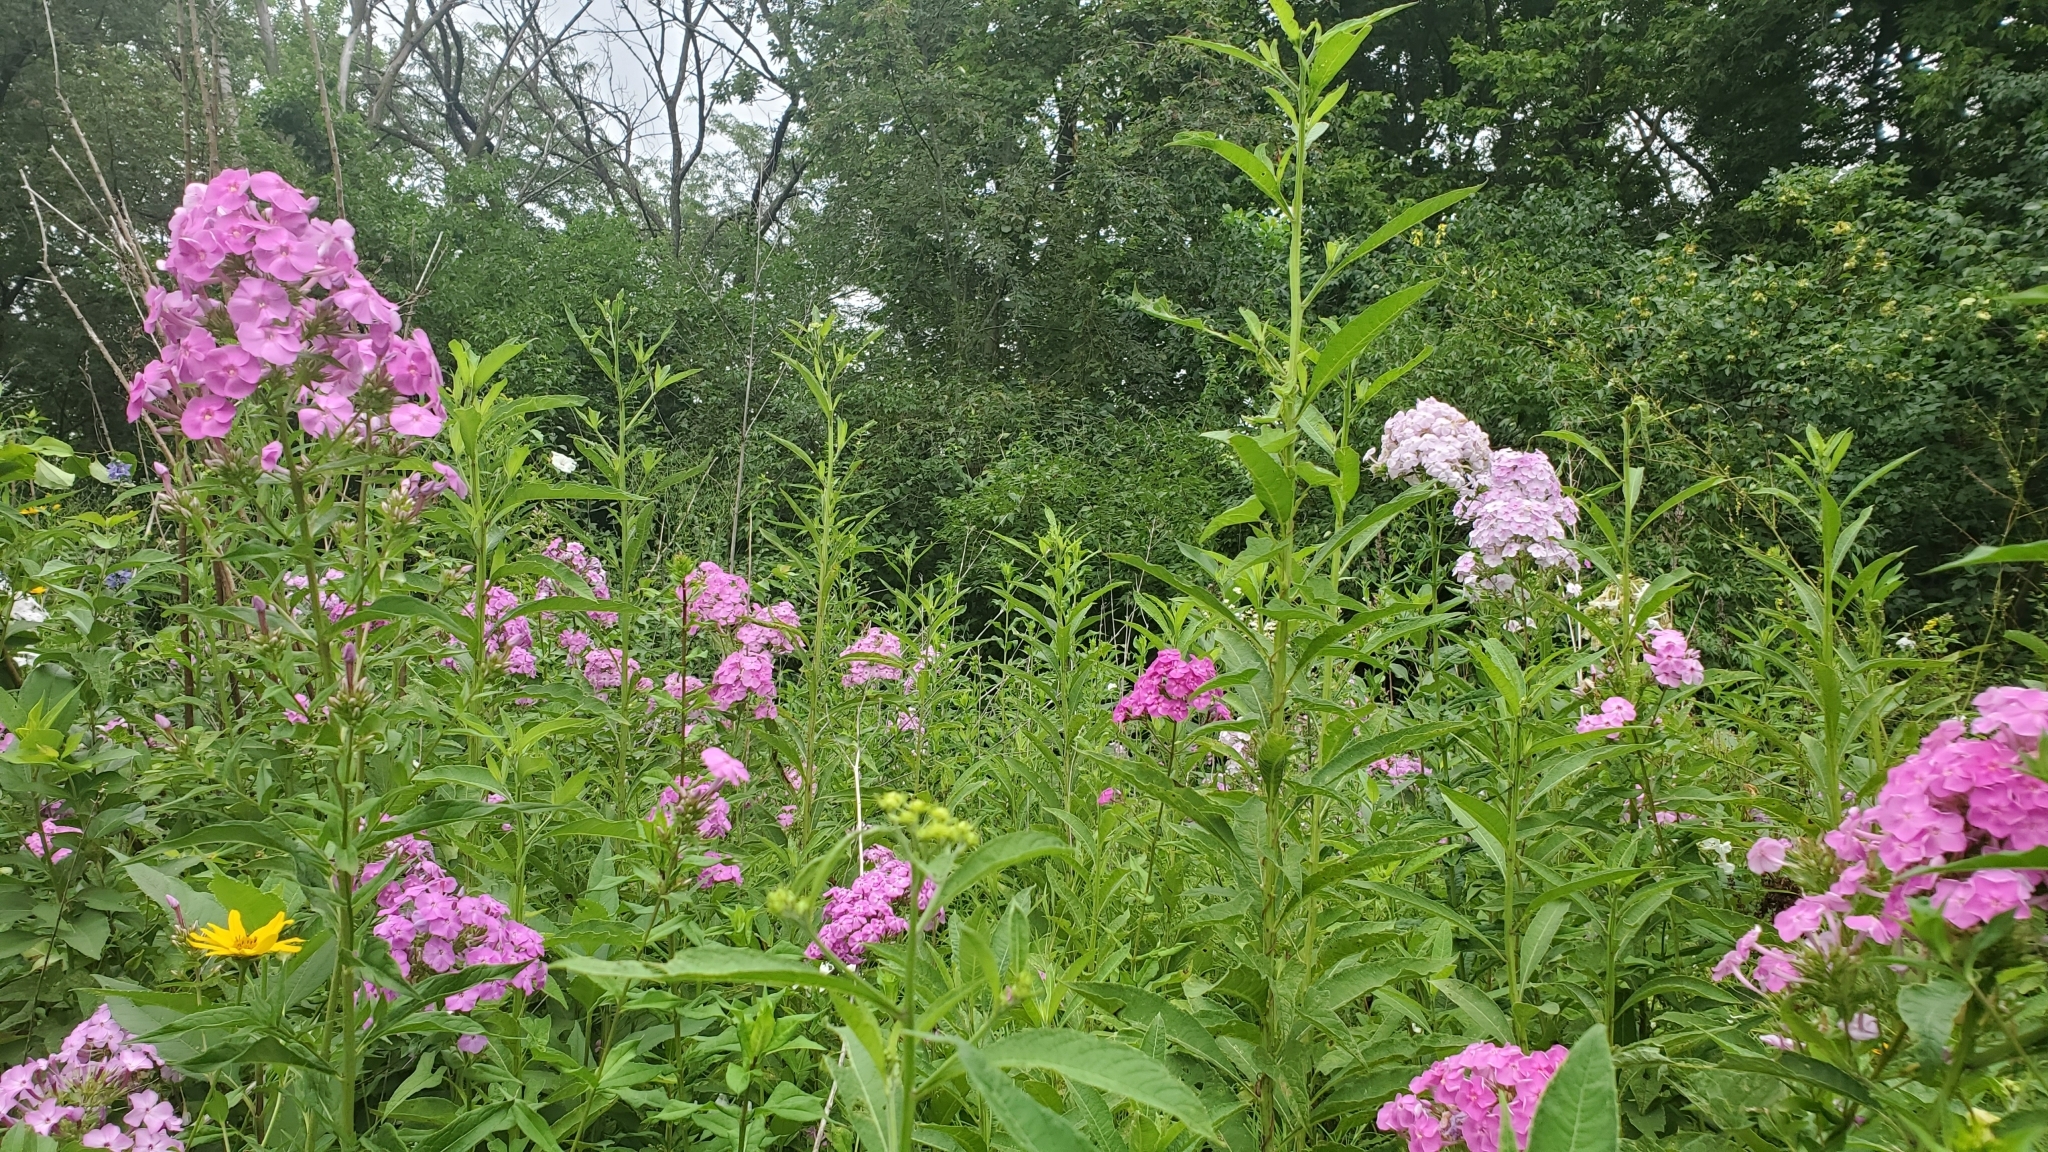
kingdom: Plantae
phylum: Tracheophyta
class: Magnoliopsida
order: Ericales
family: Polemoniaceae
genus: Phlox
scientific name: Phlox paniculata
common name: Fall phlox
